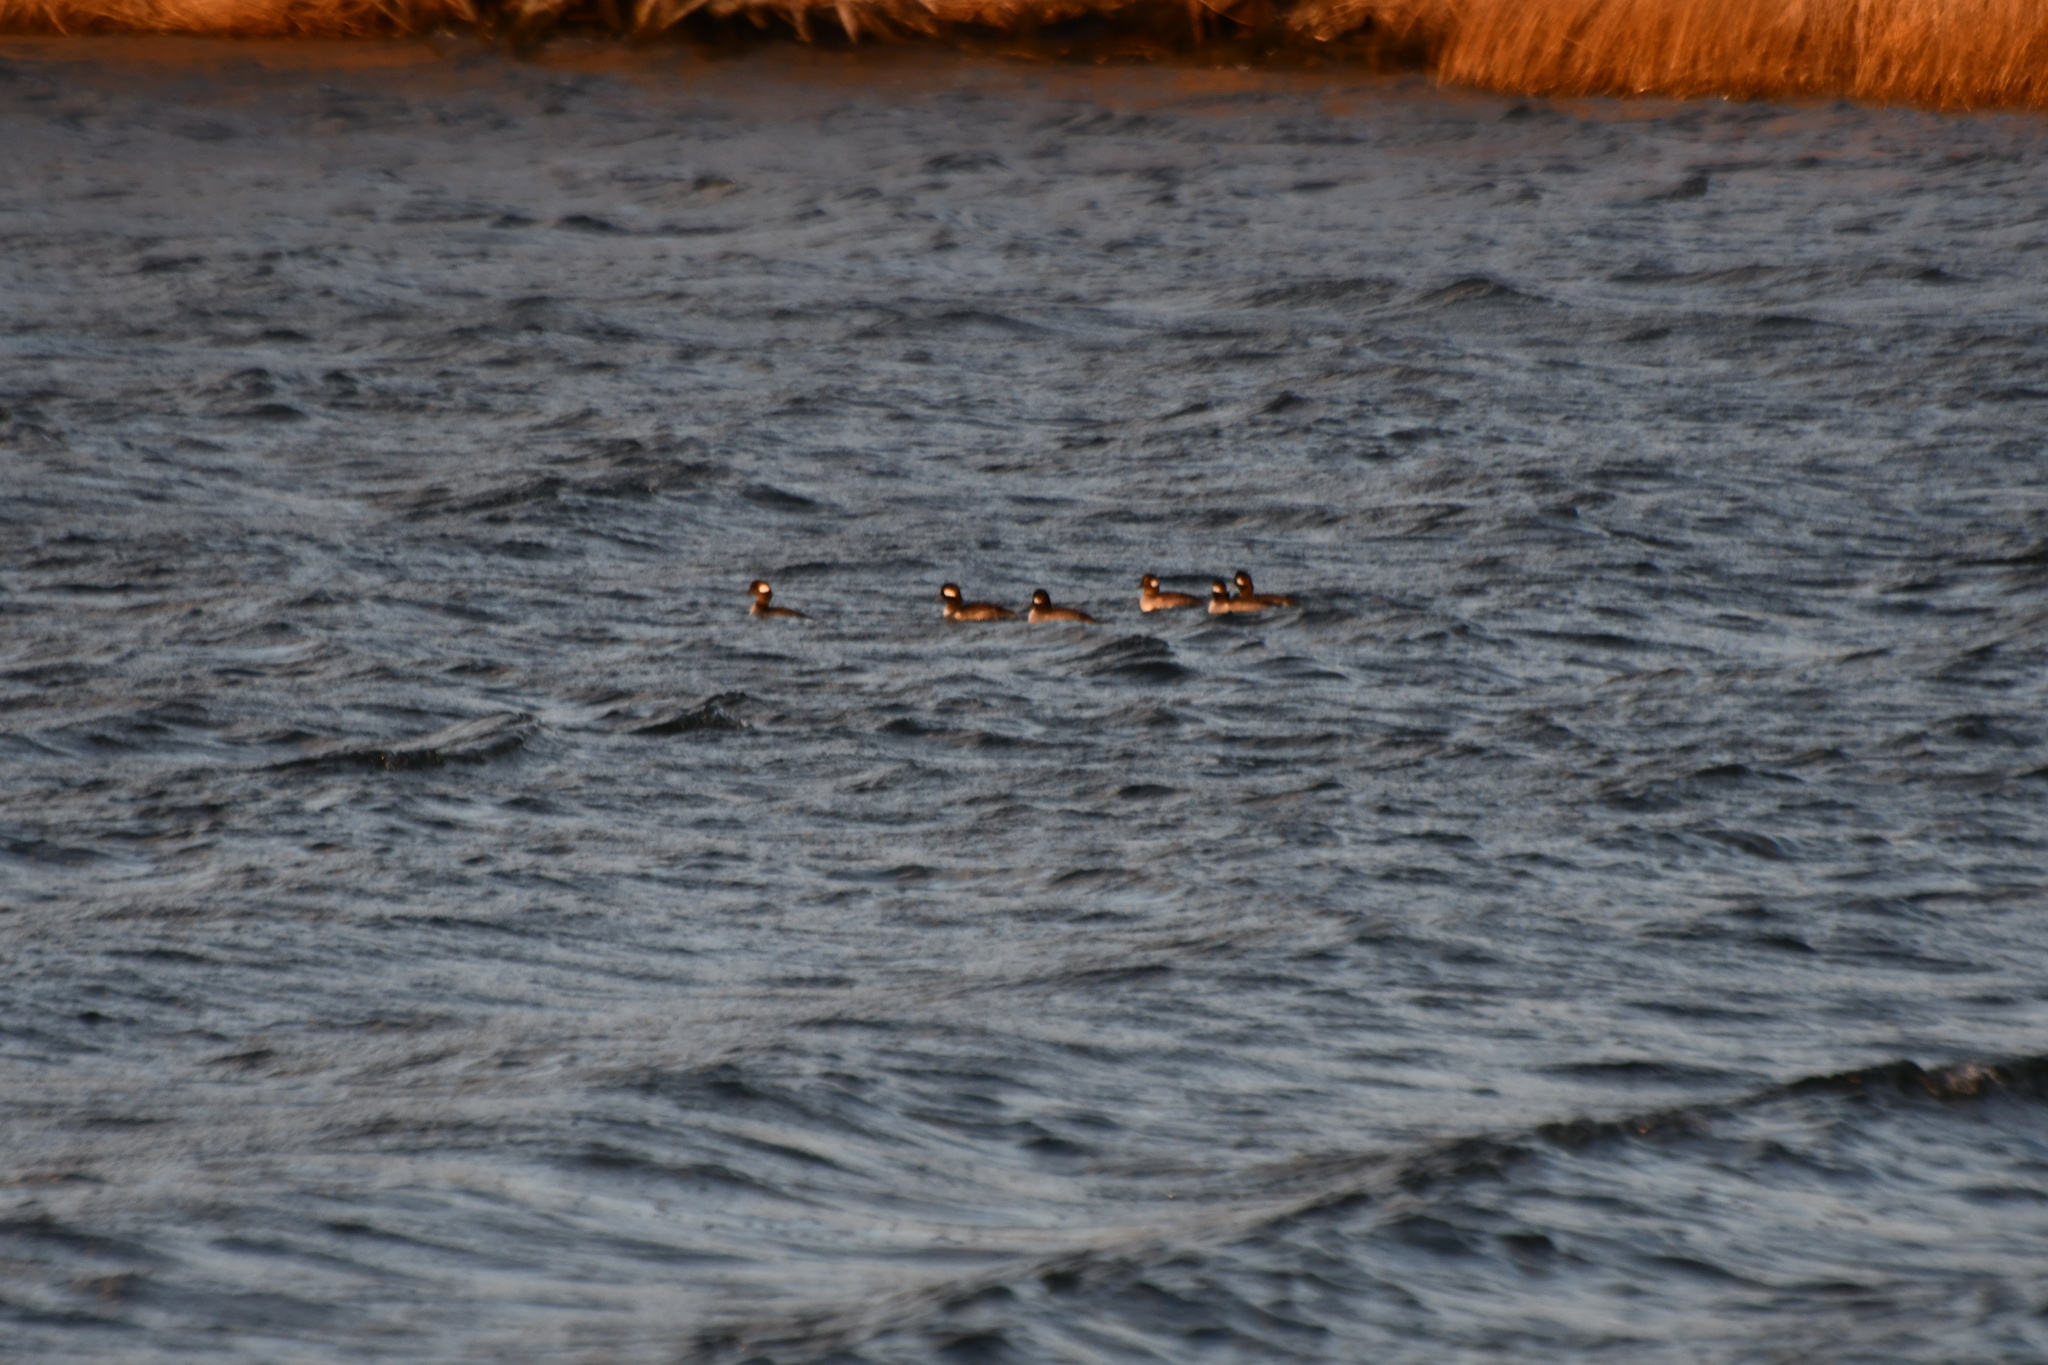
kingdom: Animalia
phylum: Chordata
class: Aves
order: Anseriformes
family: Anatidae
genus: Bucephala
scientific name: Bucephala albeola
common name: Bufflehead
